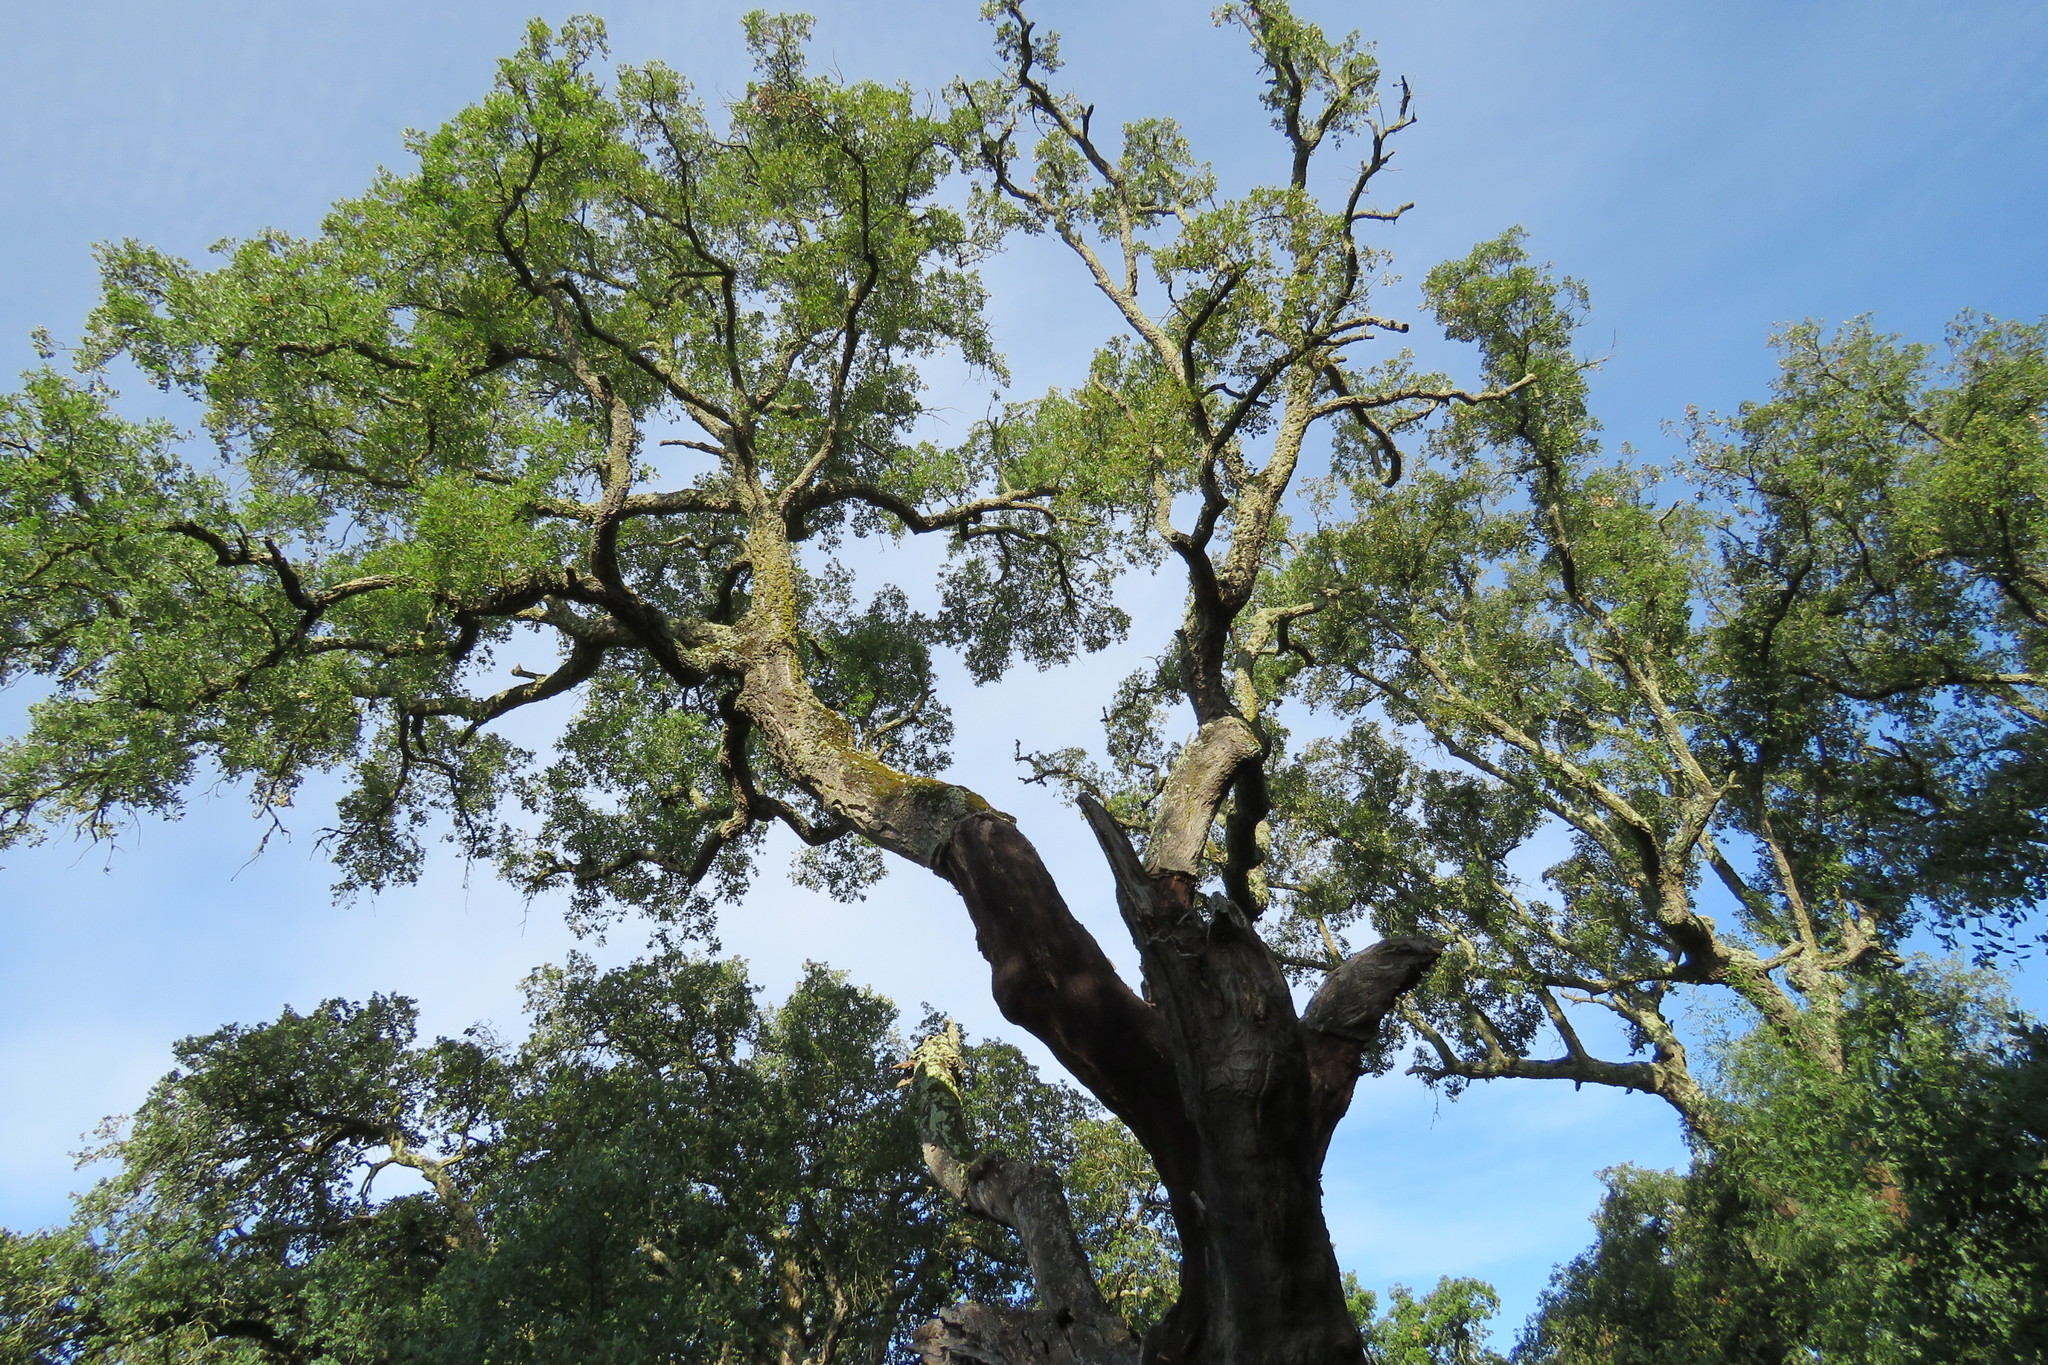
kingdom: Plantae
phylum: Tracheophyta
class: Magnoliopsida
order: Fagales
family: Fagaceae
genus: Quercus
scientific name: Quercus suber
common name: Cork oak
